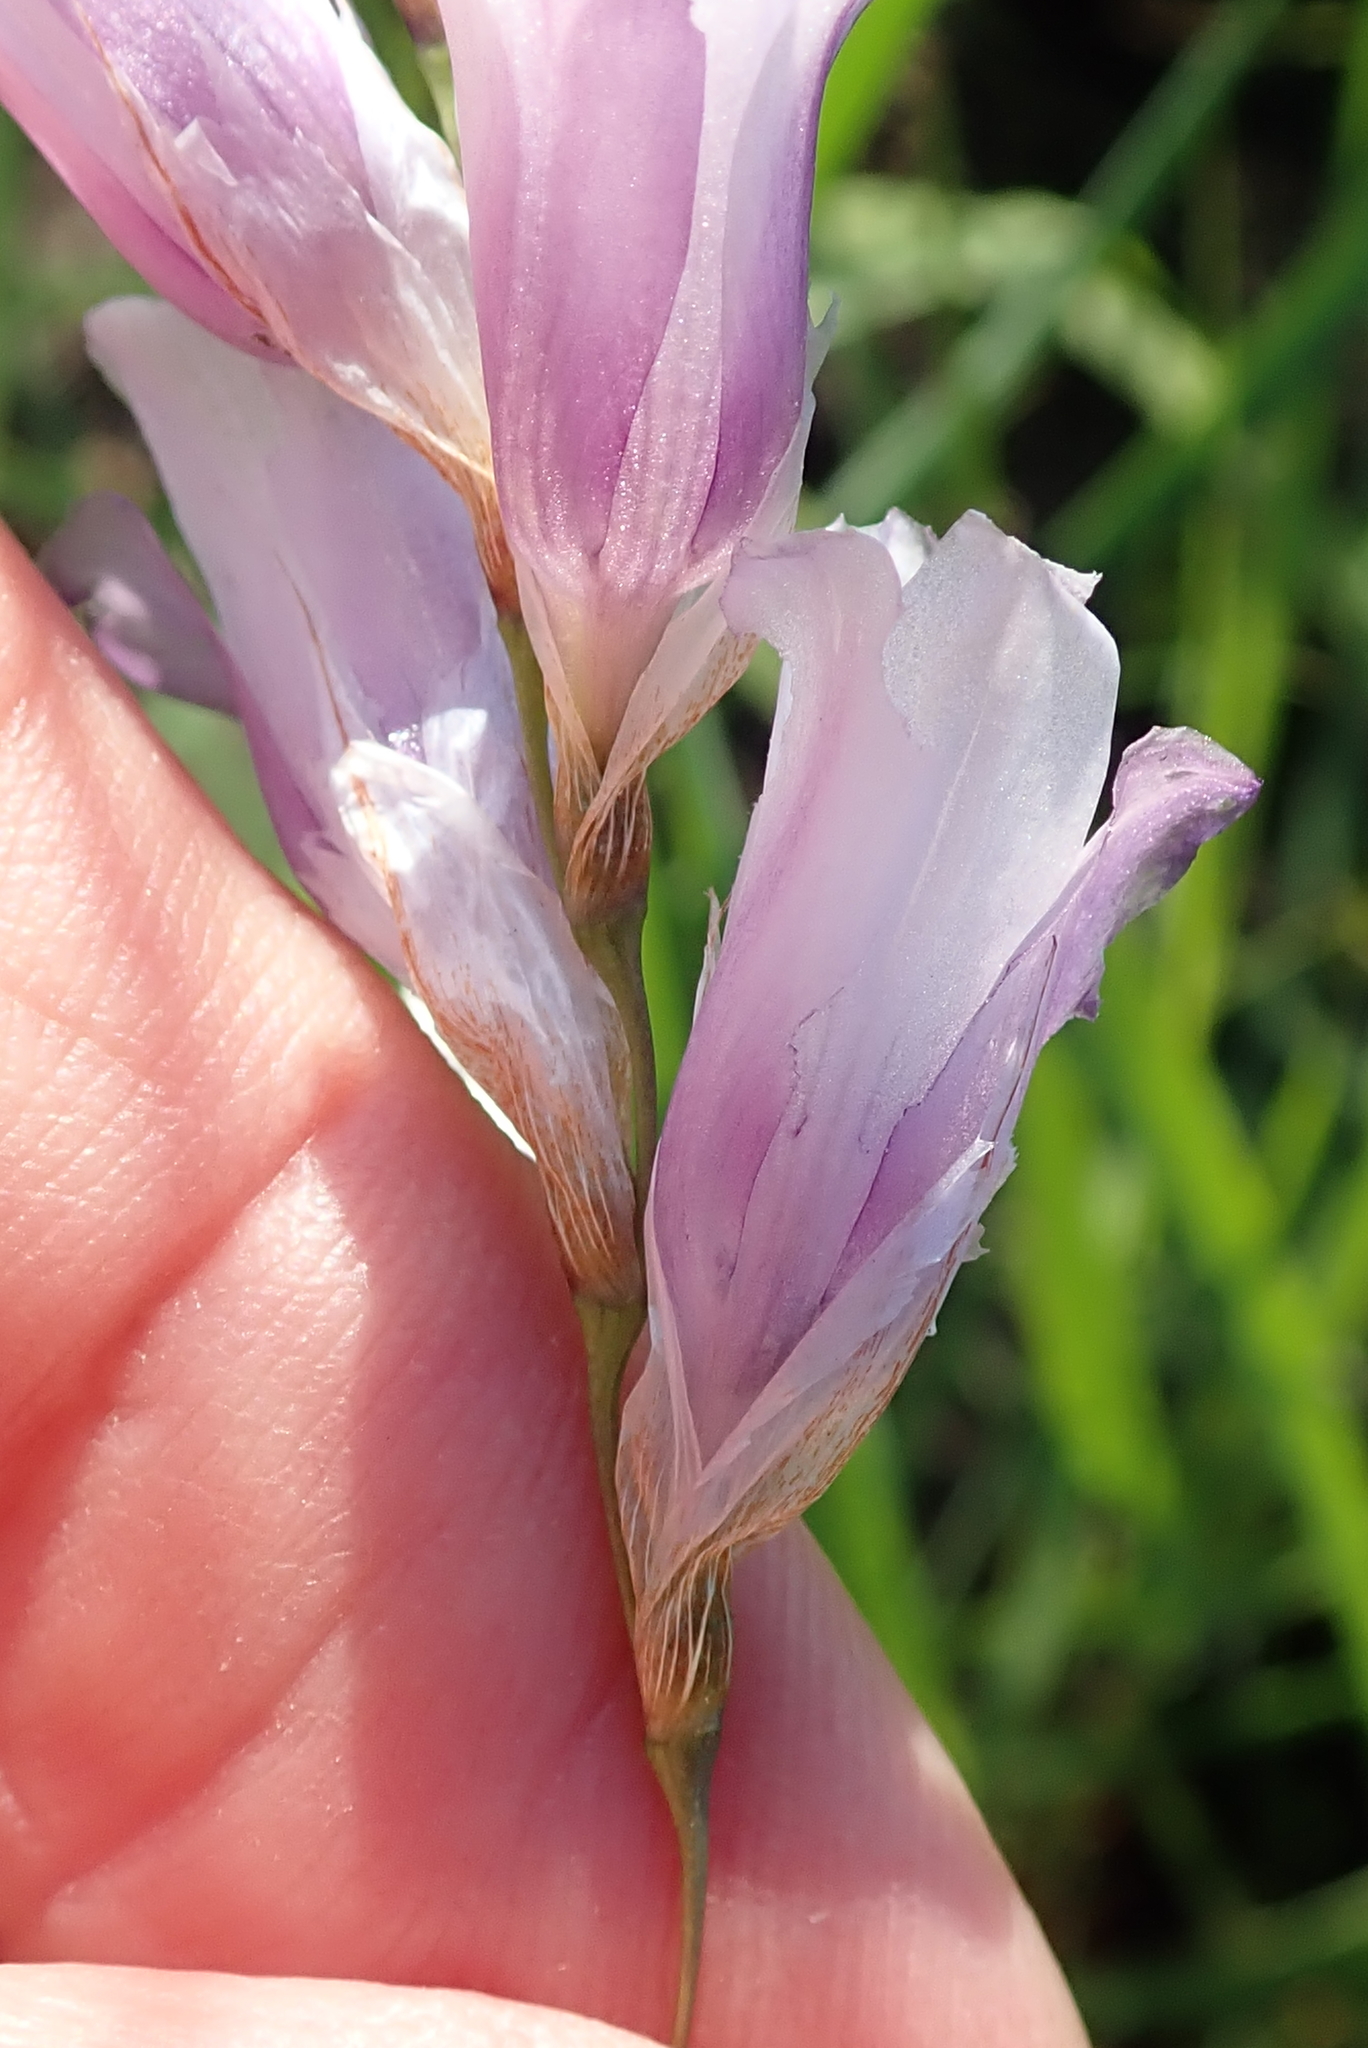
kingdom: Plantae
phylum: Tracheophyta
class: Liliopsida
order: Asparagales
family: Iridaceae
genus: Dierama
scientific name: Dierama floriferum
